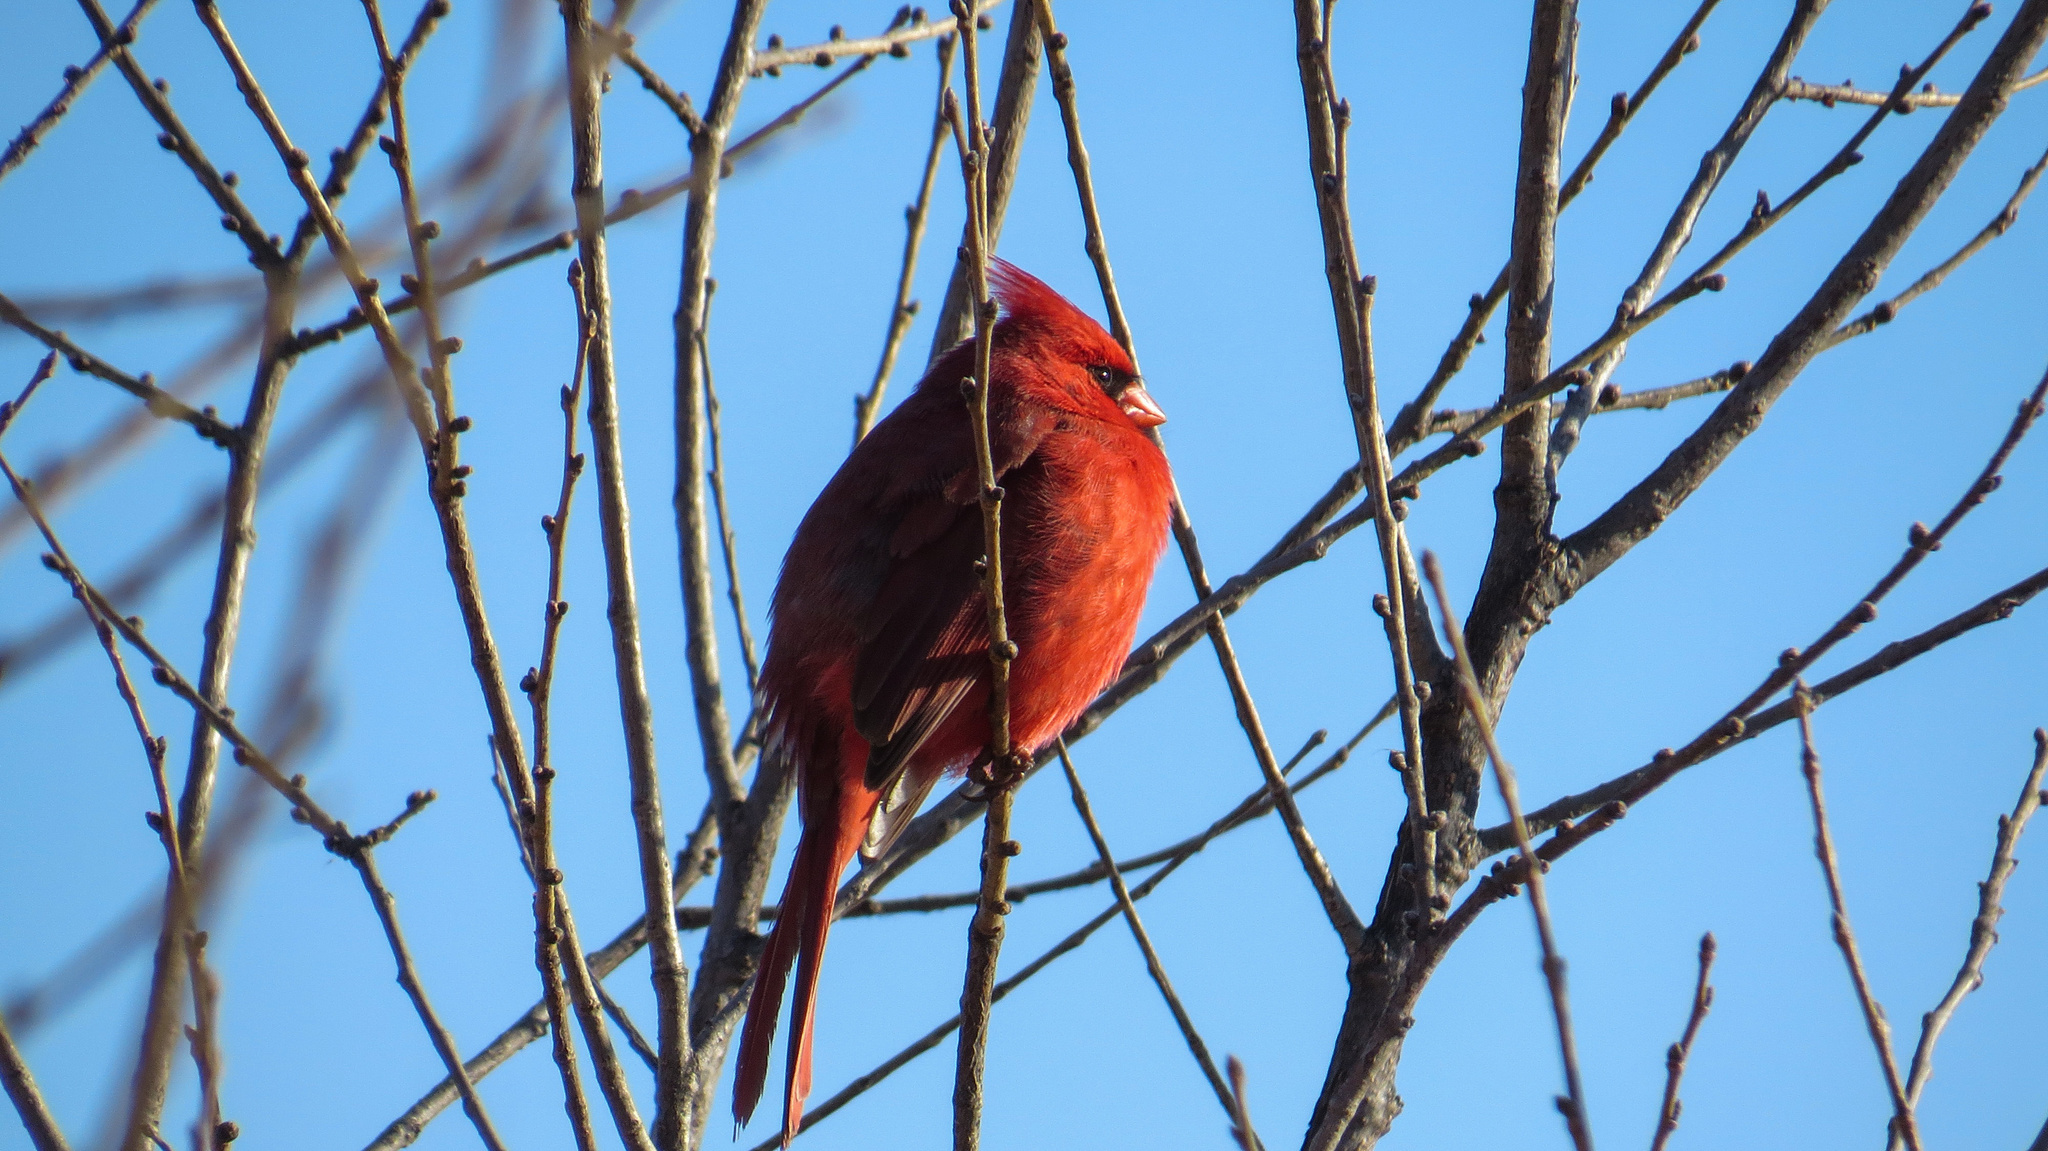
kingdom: Animalia
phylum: Chordata
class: Aves
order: Passeriformes
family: Cardinalidae
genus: Cardinalis
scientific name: Cardinalis cardinalis
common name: Northern cardinal
